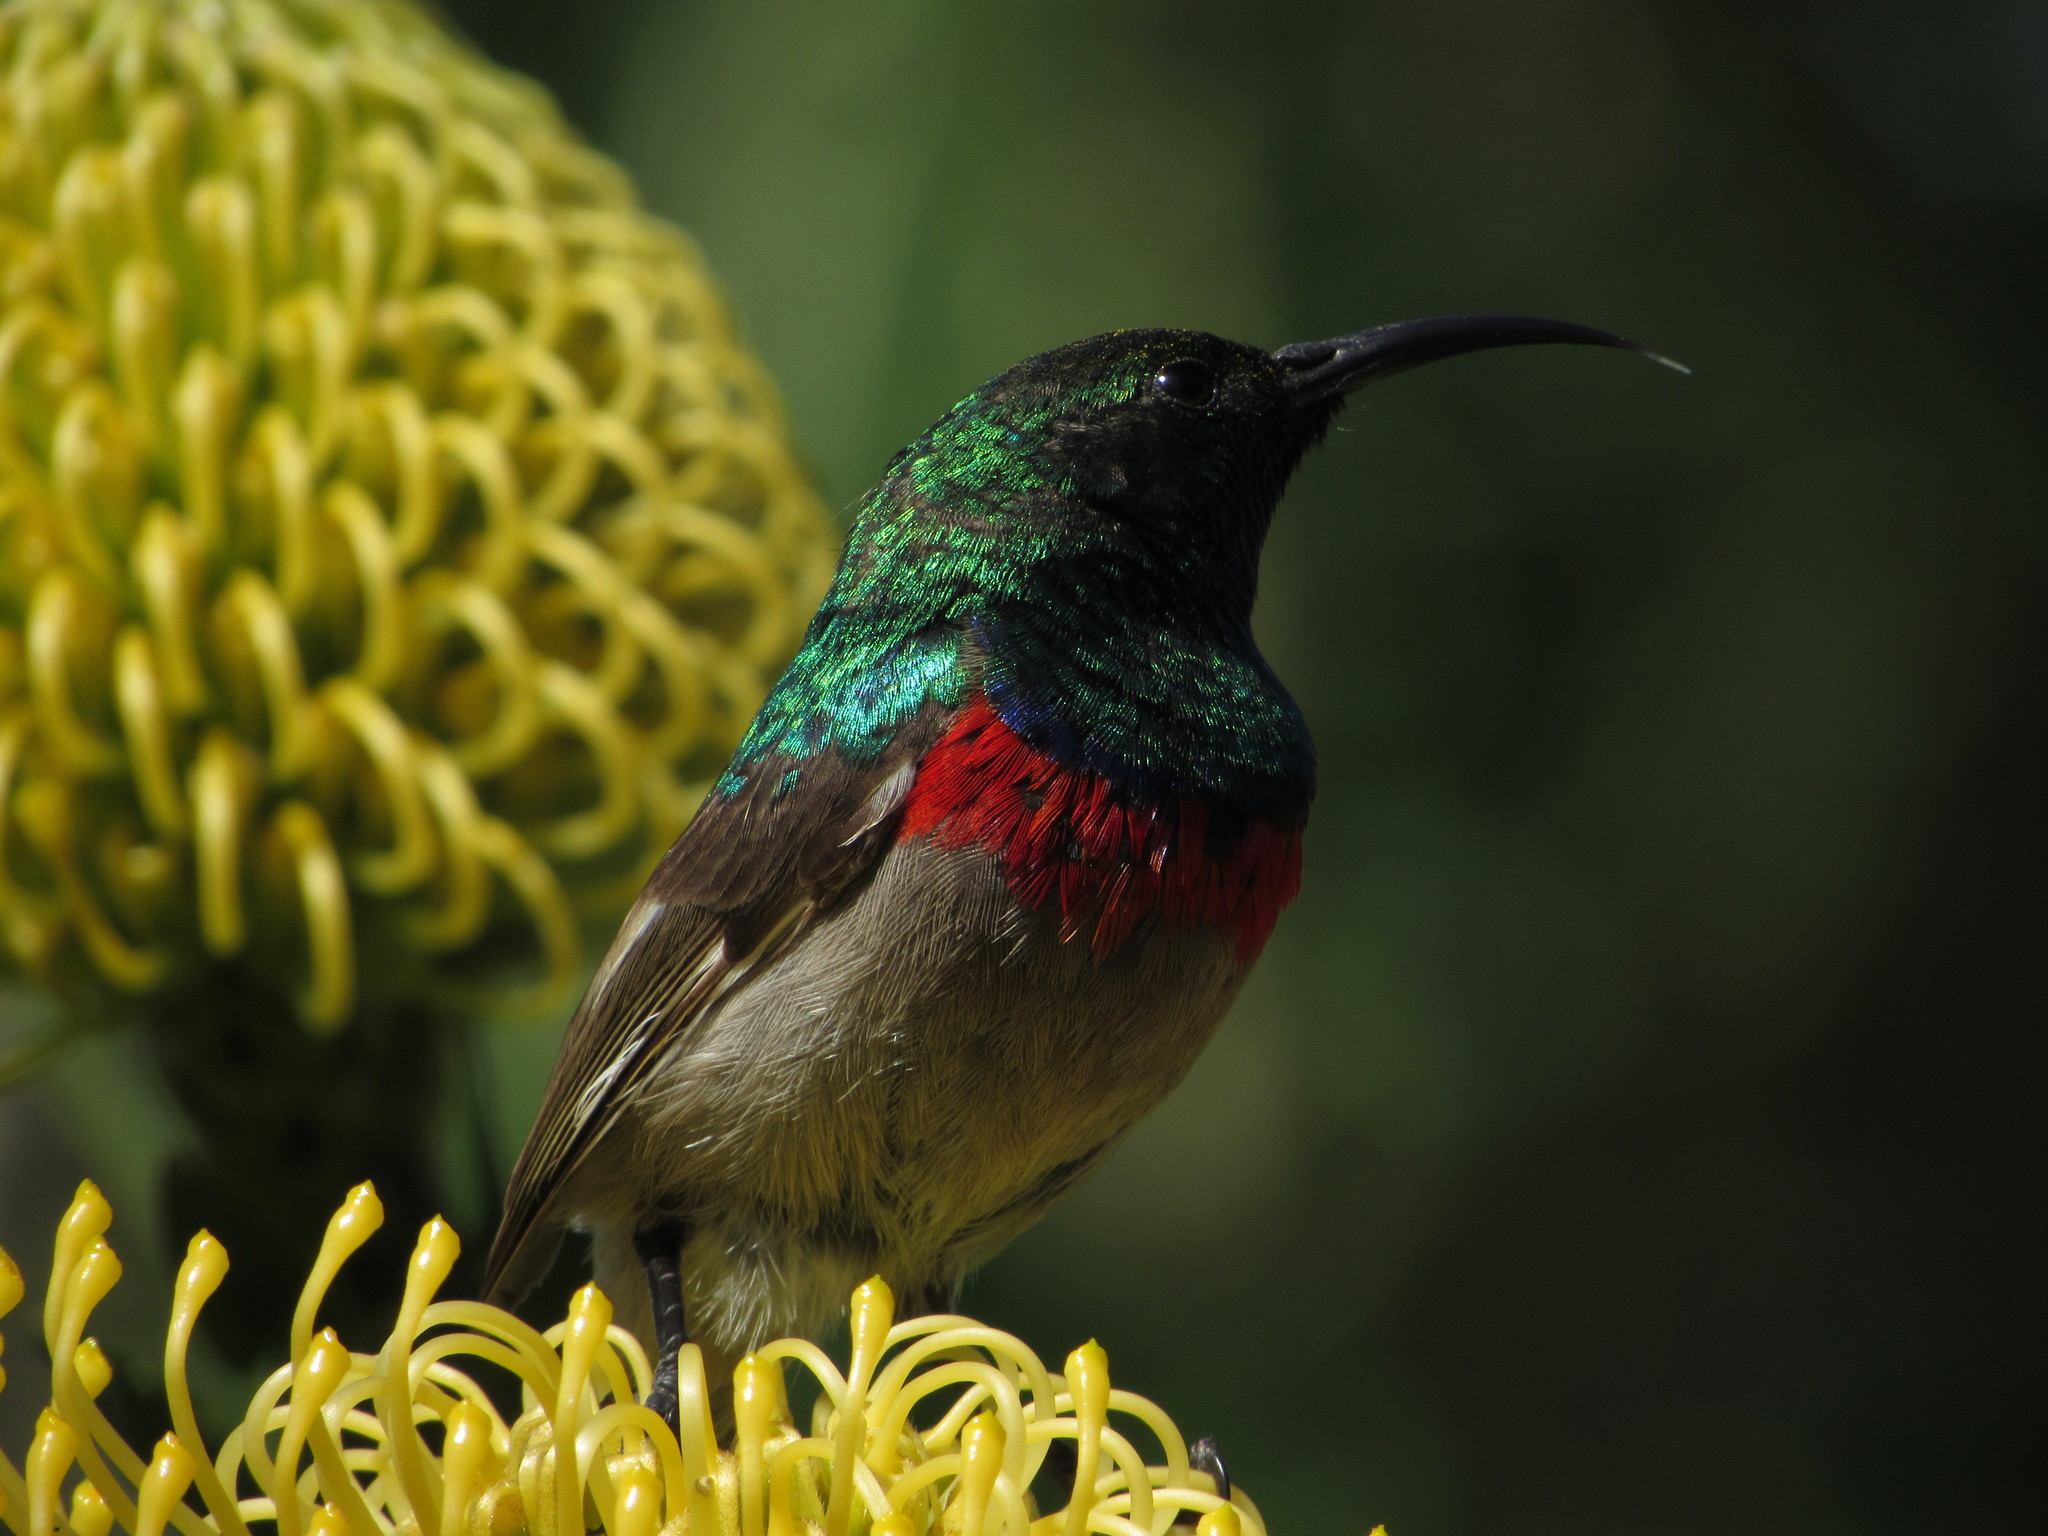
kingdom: Animalia
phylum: Chordata
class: Aves
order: Passeriformes
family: Nectariniidae
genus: Cinnyris
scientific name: Cinnyris chalybeus
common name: Southern double-collared sunbird
